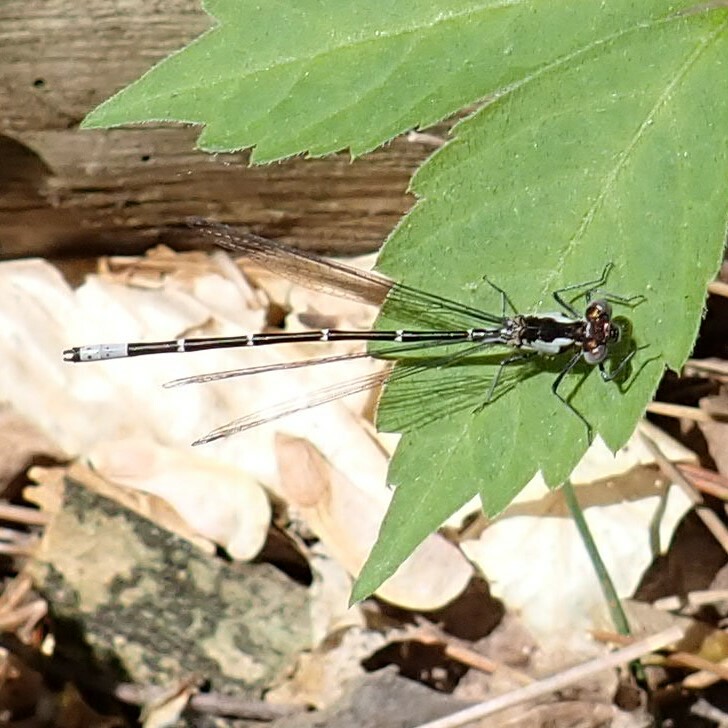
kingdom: Animalia
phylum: Arthropoda
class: Insecta
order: Odonata
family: Coenagrionidae
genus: Chromagrion
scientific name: Chromagrion conditum
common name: Aurora damsel
